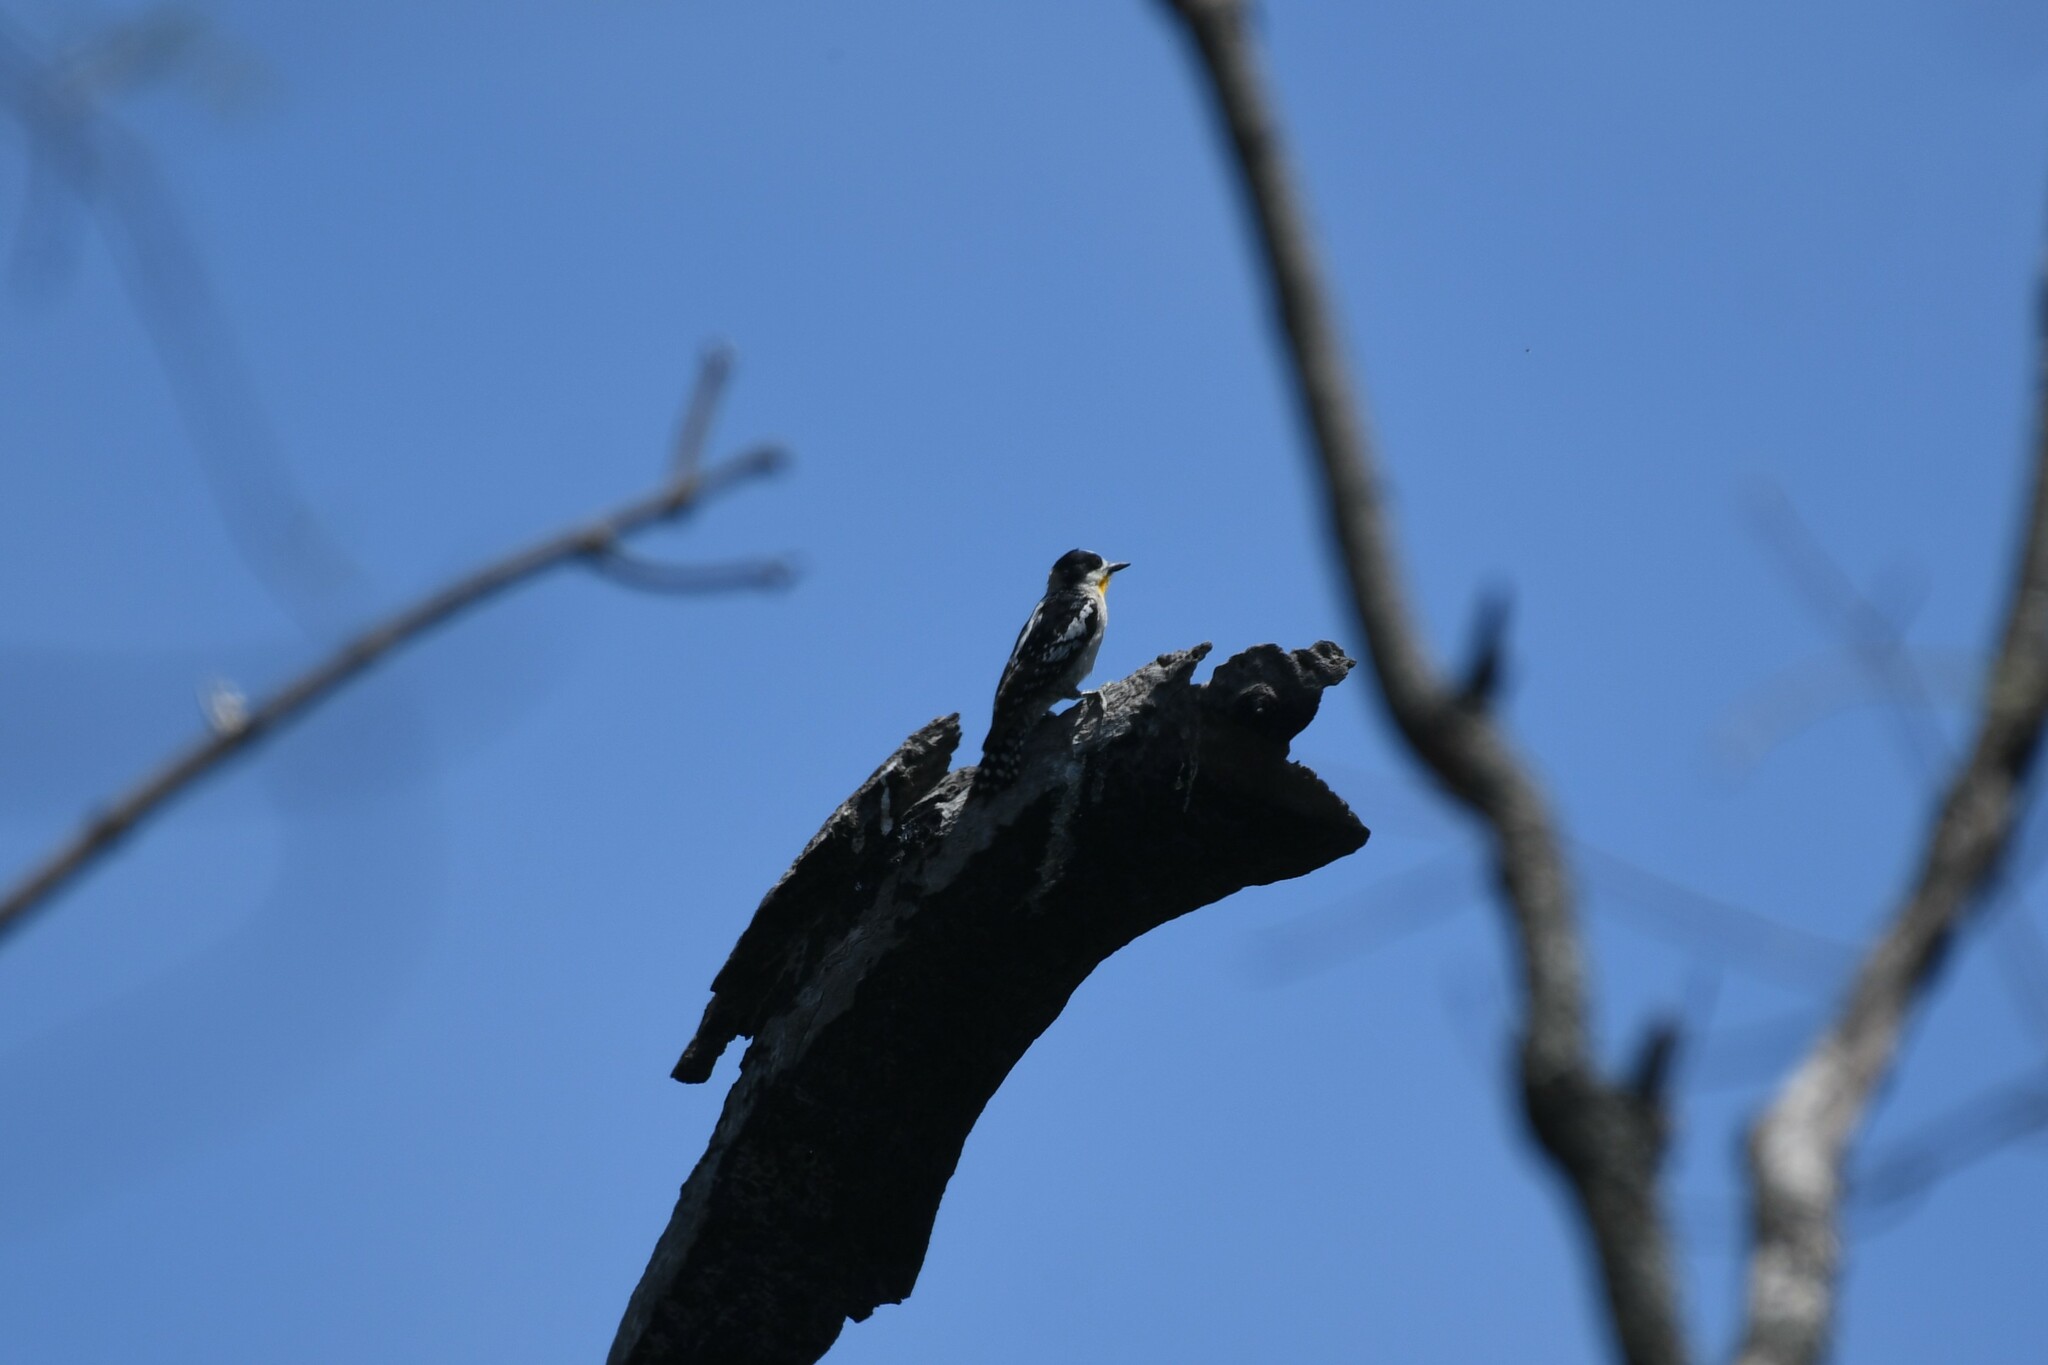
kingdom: Animalia
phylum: Chordata
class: Aves
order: Piciformes
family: Picidae
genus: Melanerpes
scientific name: Melanerpes cactorum
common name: White-fronted woodpecker
